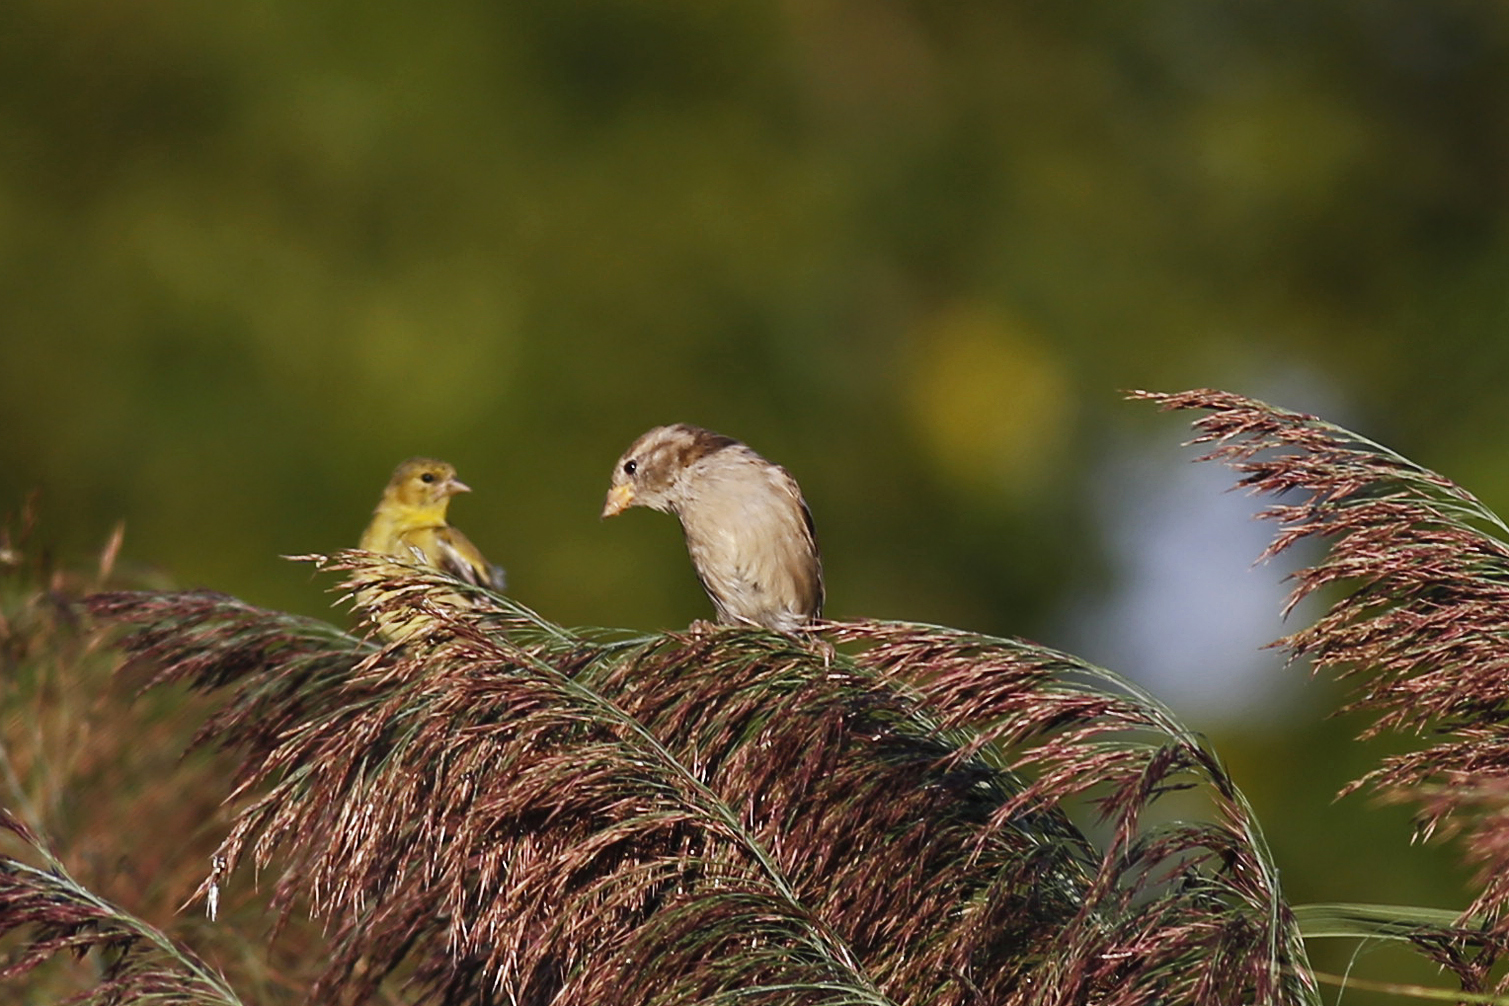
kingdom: Animalia
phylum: Chordata
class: Aves
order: Passeriformes
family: Passeridae
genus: Passer
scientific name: Passer domesticus
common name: House sparrow
